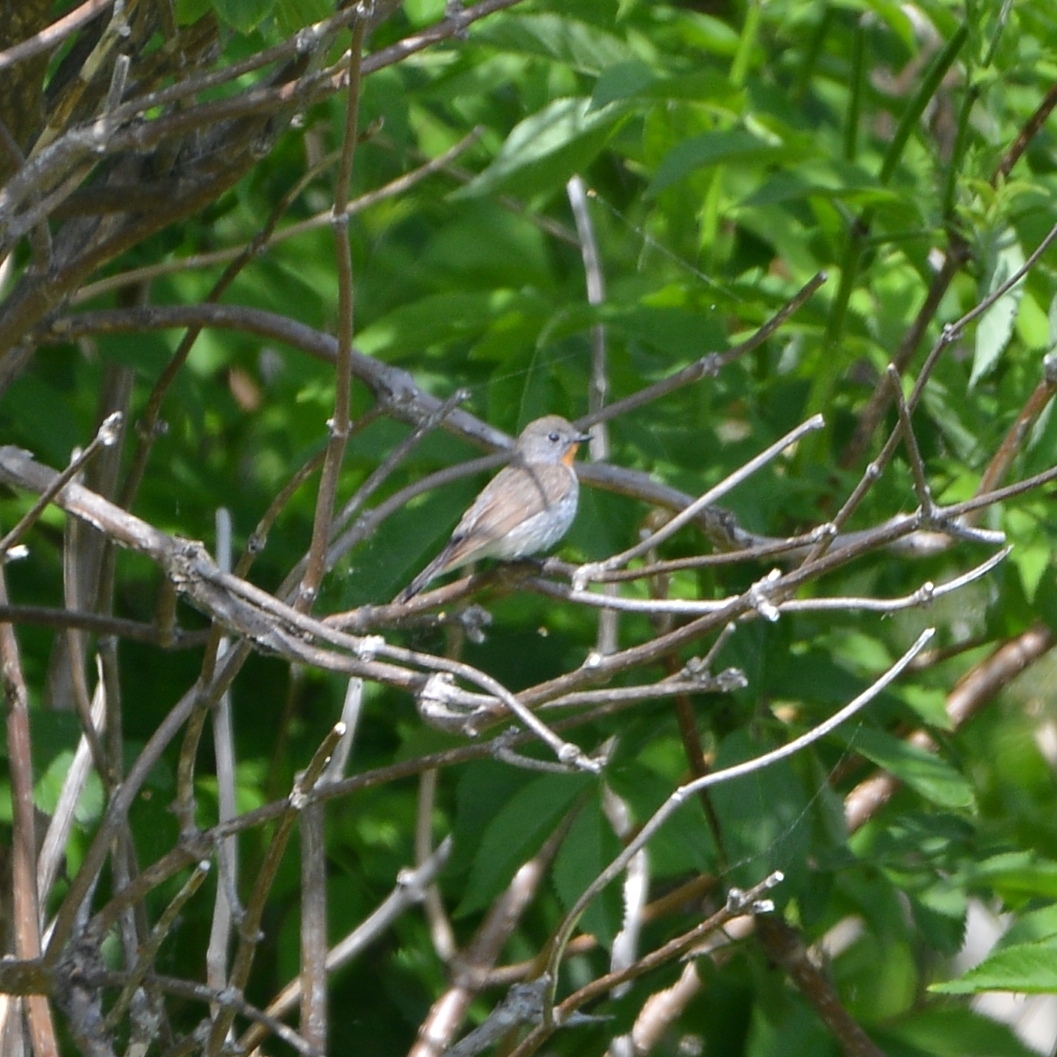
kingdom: Animalia
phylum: Chordata
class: Aves
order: Passeriformes
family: Muscicapidae
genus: Ficedula
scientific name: Ficedula albicilla
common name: Taiga flycatcher
